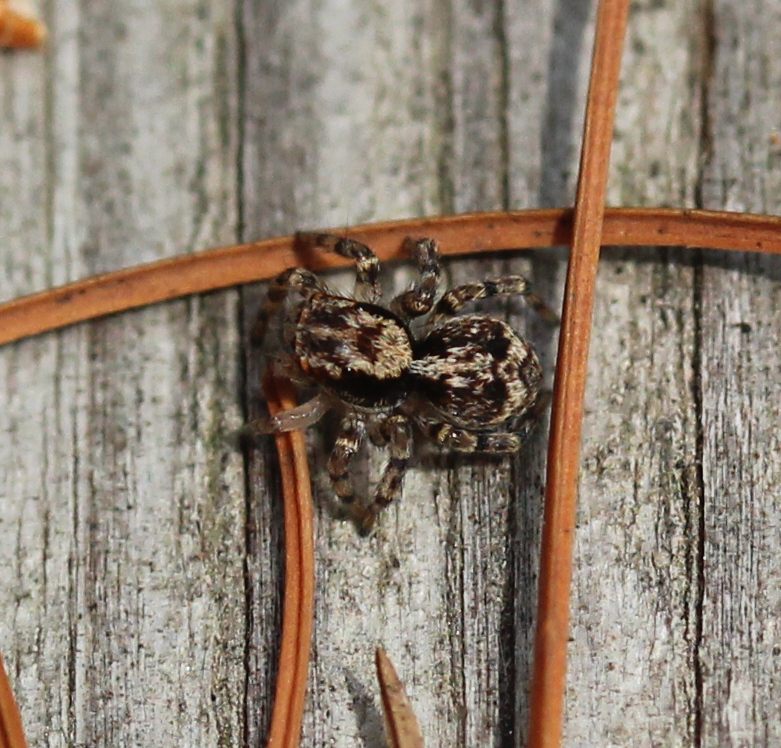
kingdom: Animalia
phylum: Arthropoda
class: Arachnida
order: Araneae
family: Salticidae
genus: Naphrys
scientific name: Naphrys pulex
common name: Flea jumping spider
